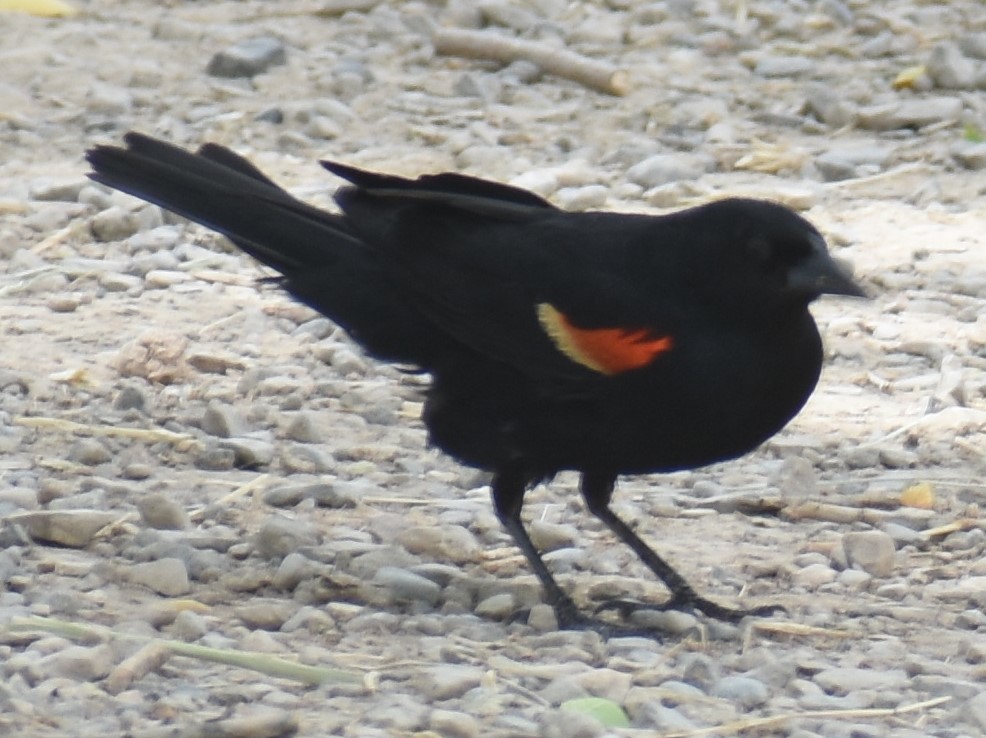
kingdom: Animalia
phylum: Chordata
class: Aves
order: Passeriformes
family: Icteridae
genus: Agelaius
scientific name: Agelaius phoeniceus
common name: Red-winged blackbird
